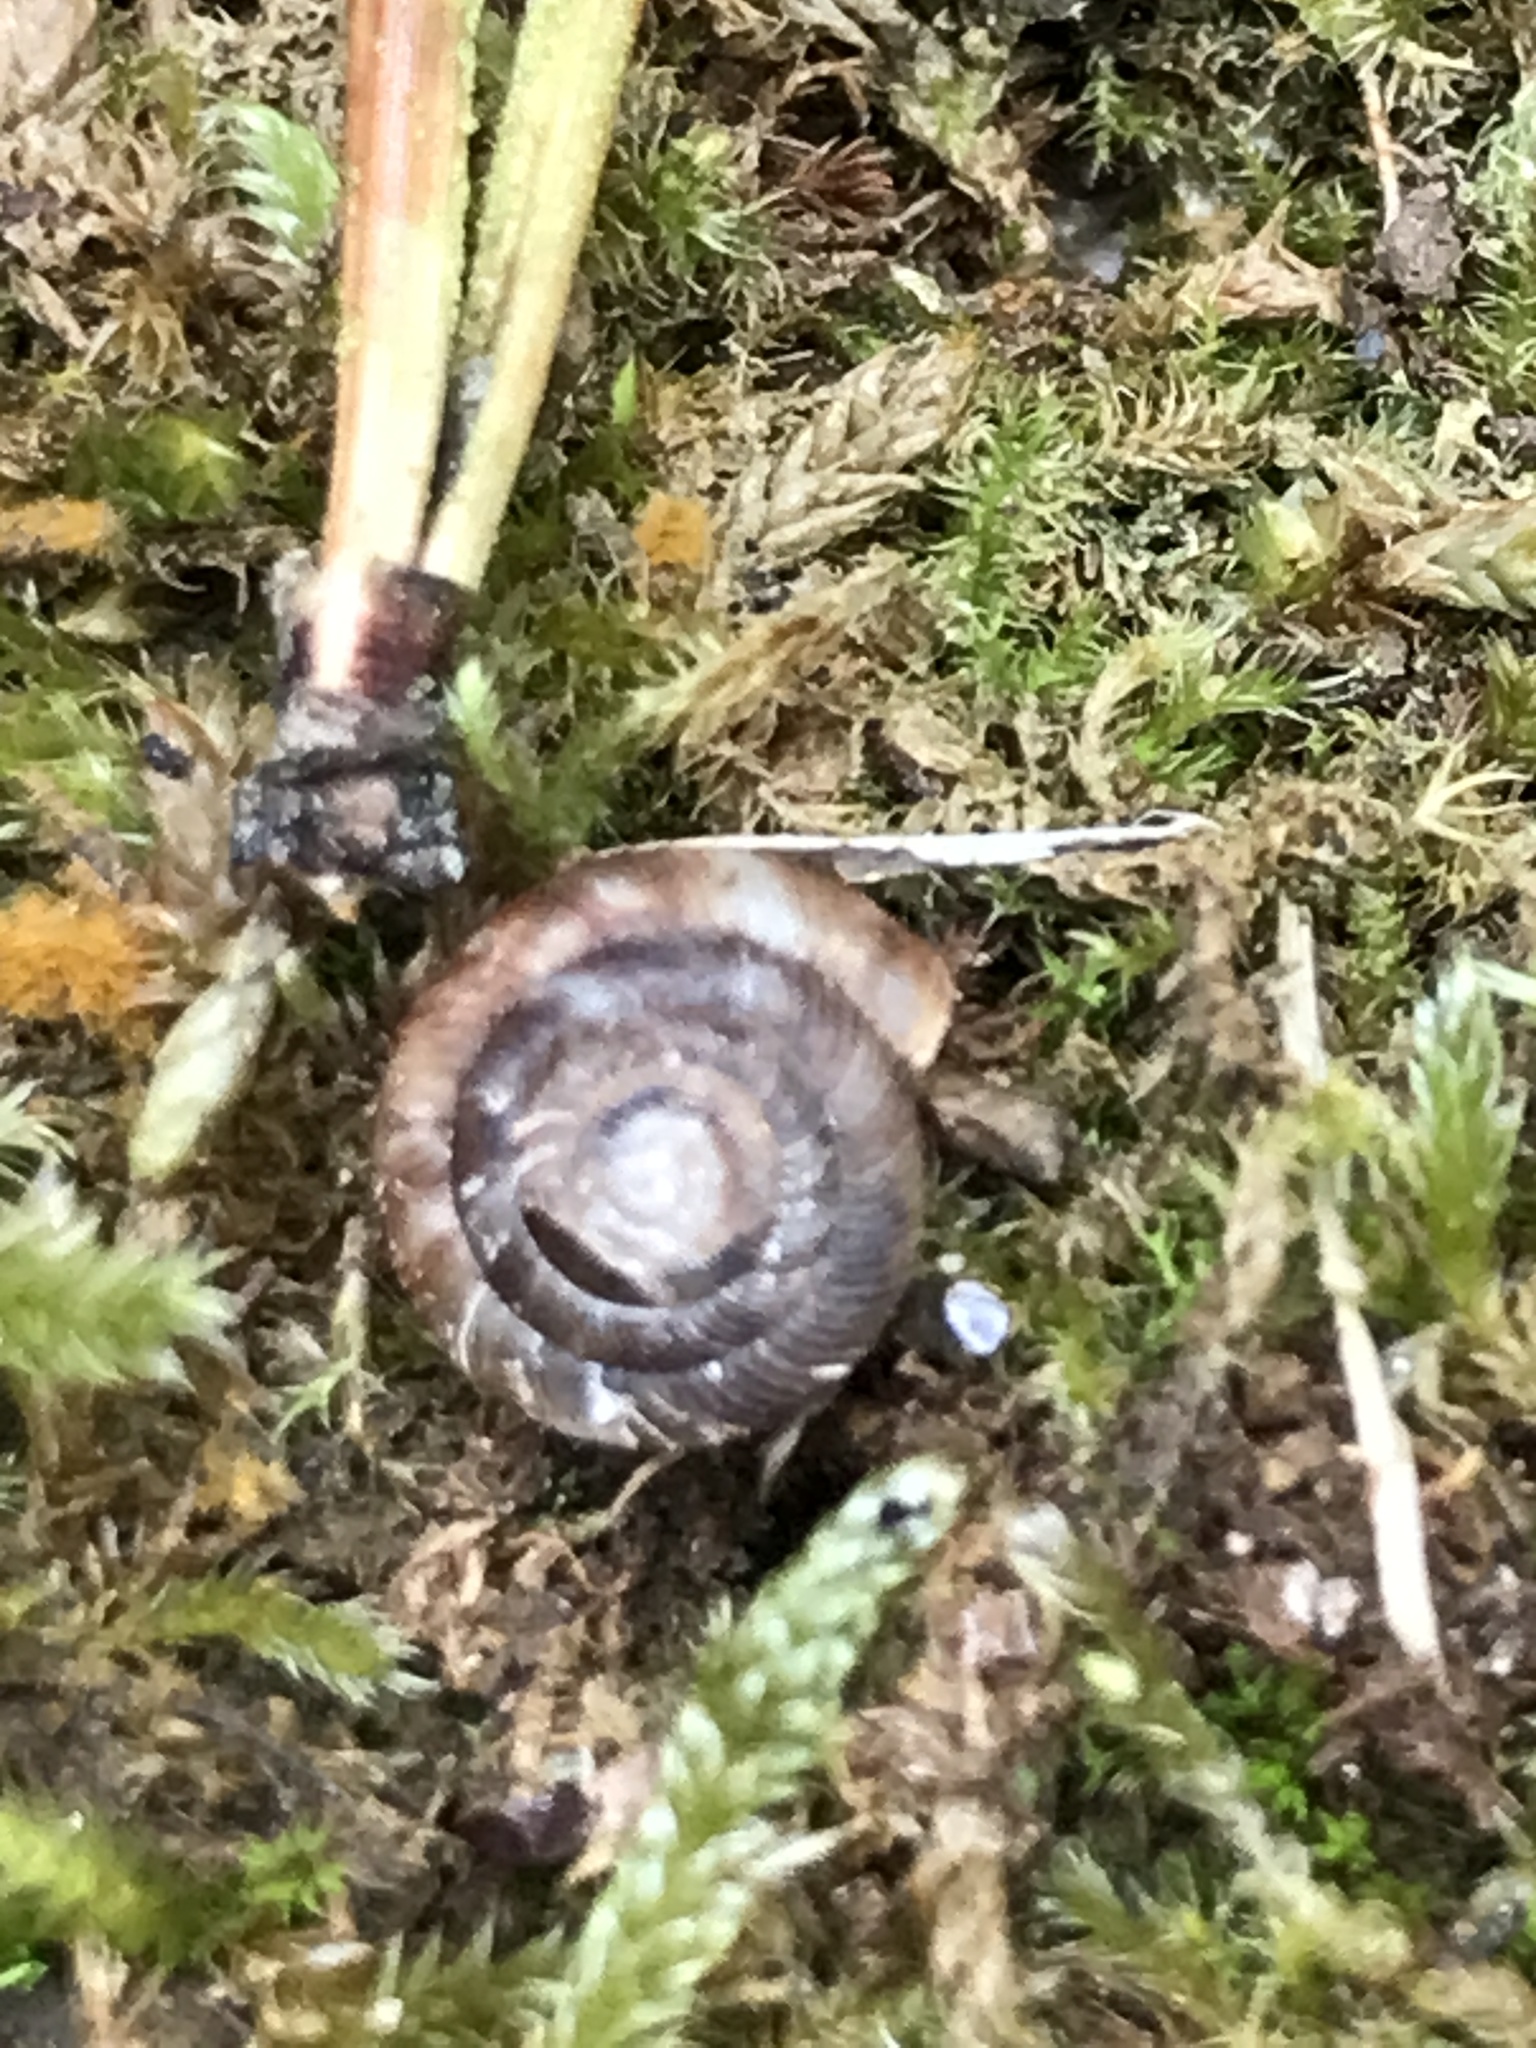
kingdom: Animalia
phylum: Mollusca
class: Gastropoda
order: Stylommatophora
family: Discidae
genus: Discus
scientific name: Discus rotundatus
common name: Rounded snail
